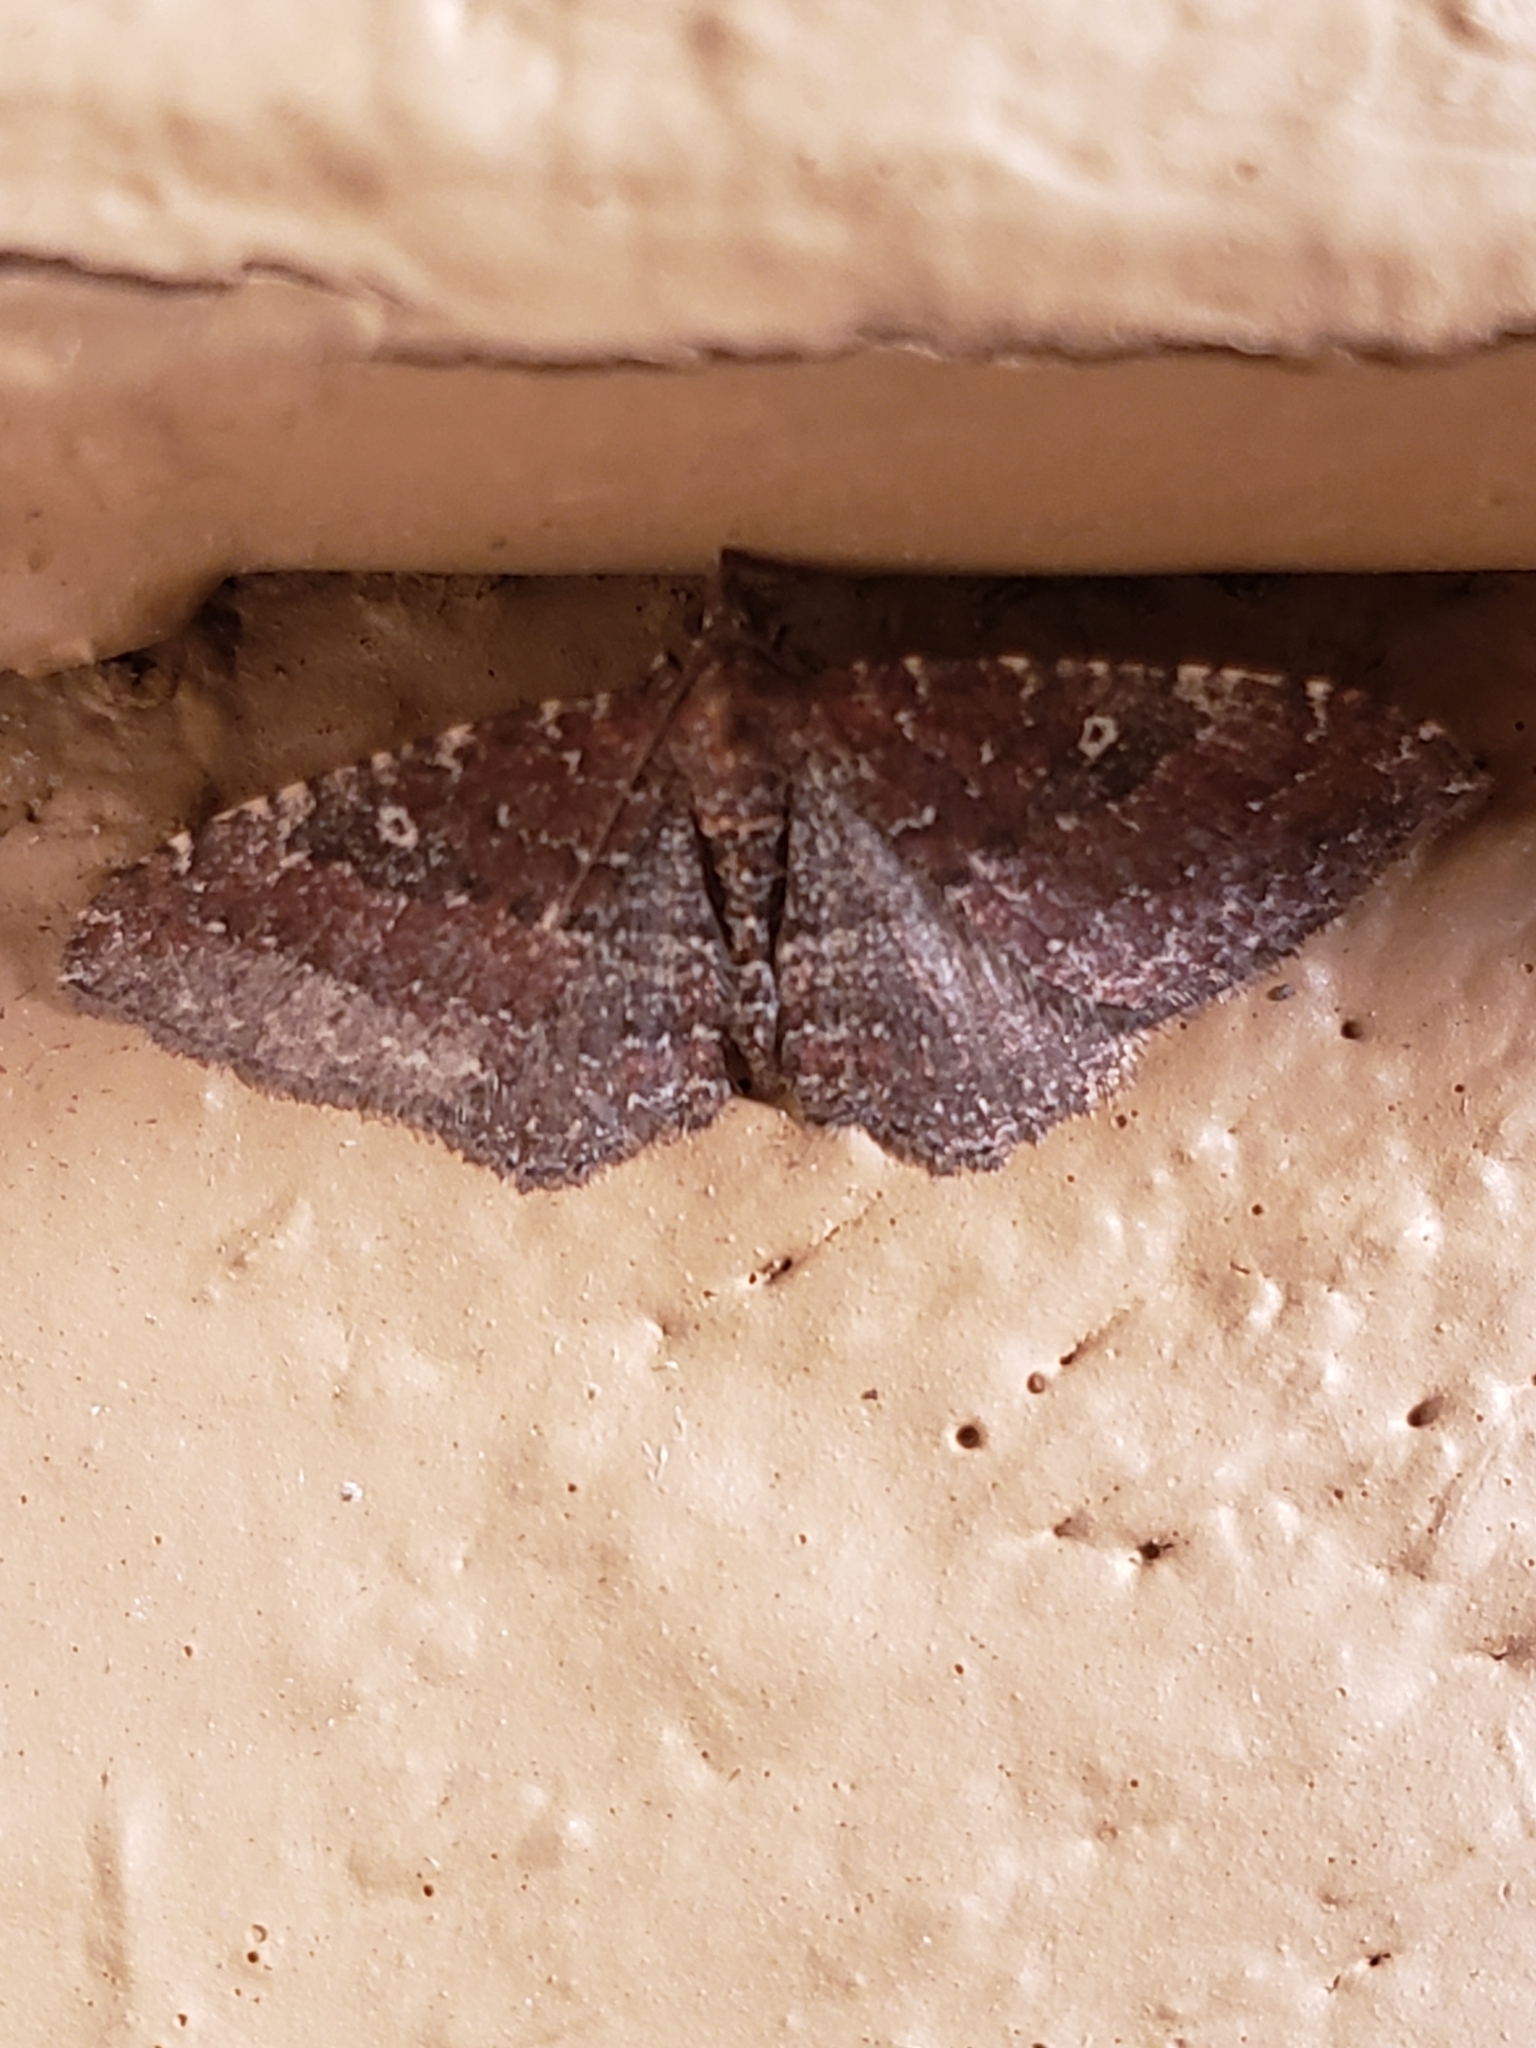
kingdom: Animalia
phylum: Arthropoda
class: Insecta
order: Lepidoptera
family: Geometridae
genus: Orthonama
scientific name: Orthonama obstipata
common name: The gem
